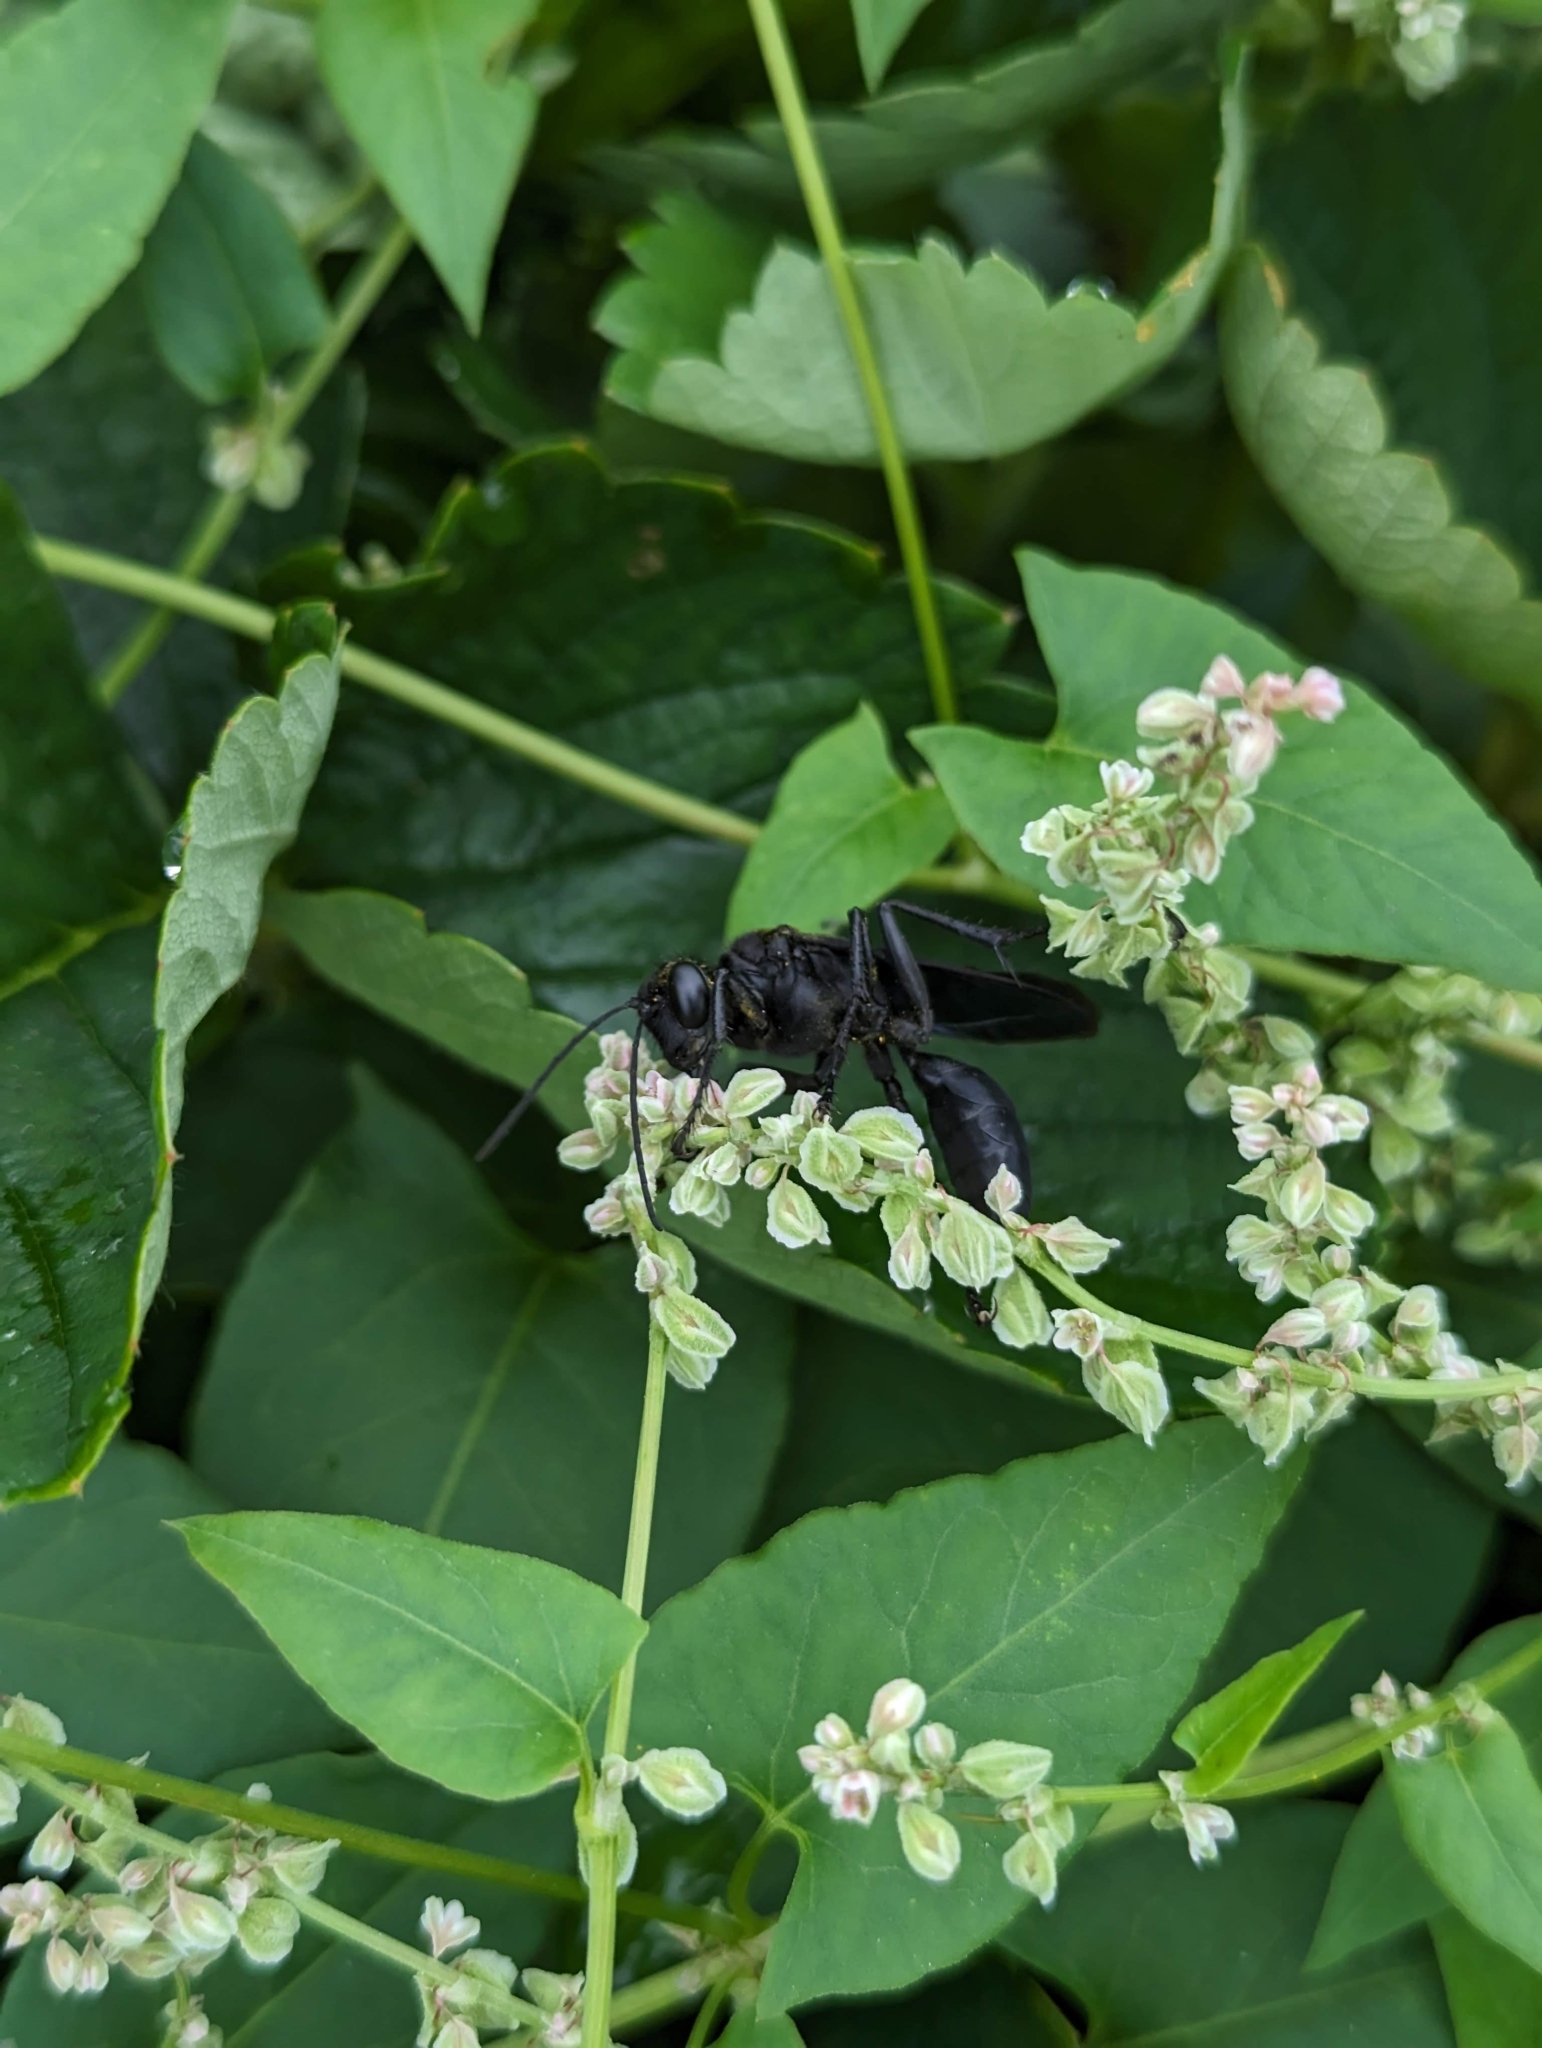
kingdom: Animalia
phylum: Arthropoda
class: Insecta
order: Hymenoptera
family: Sphecidae
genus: Sphex
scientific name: Sphex pensylvanicus
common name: Great black digger wasp
